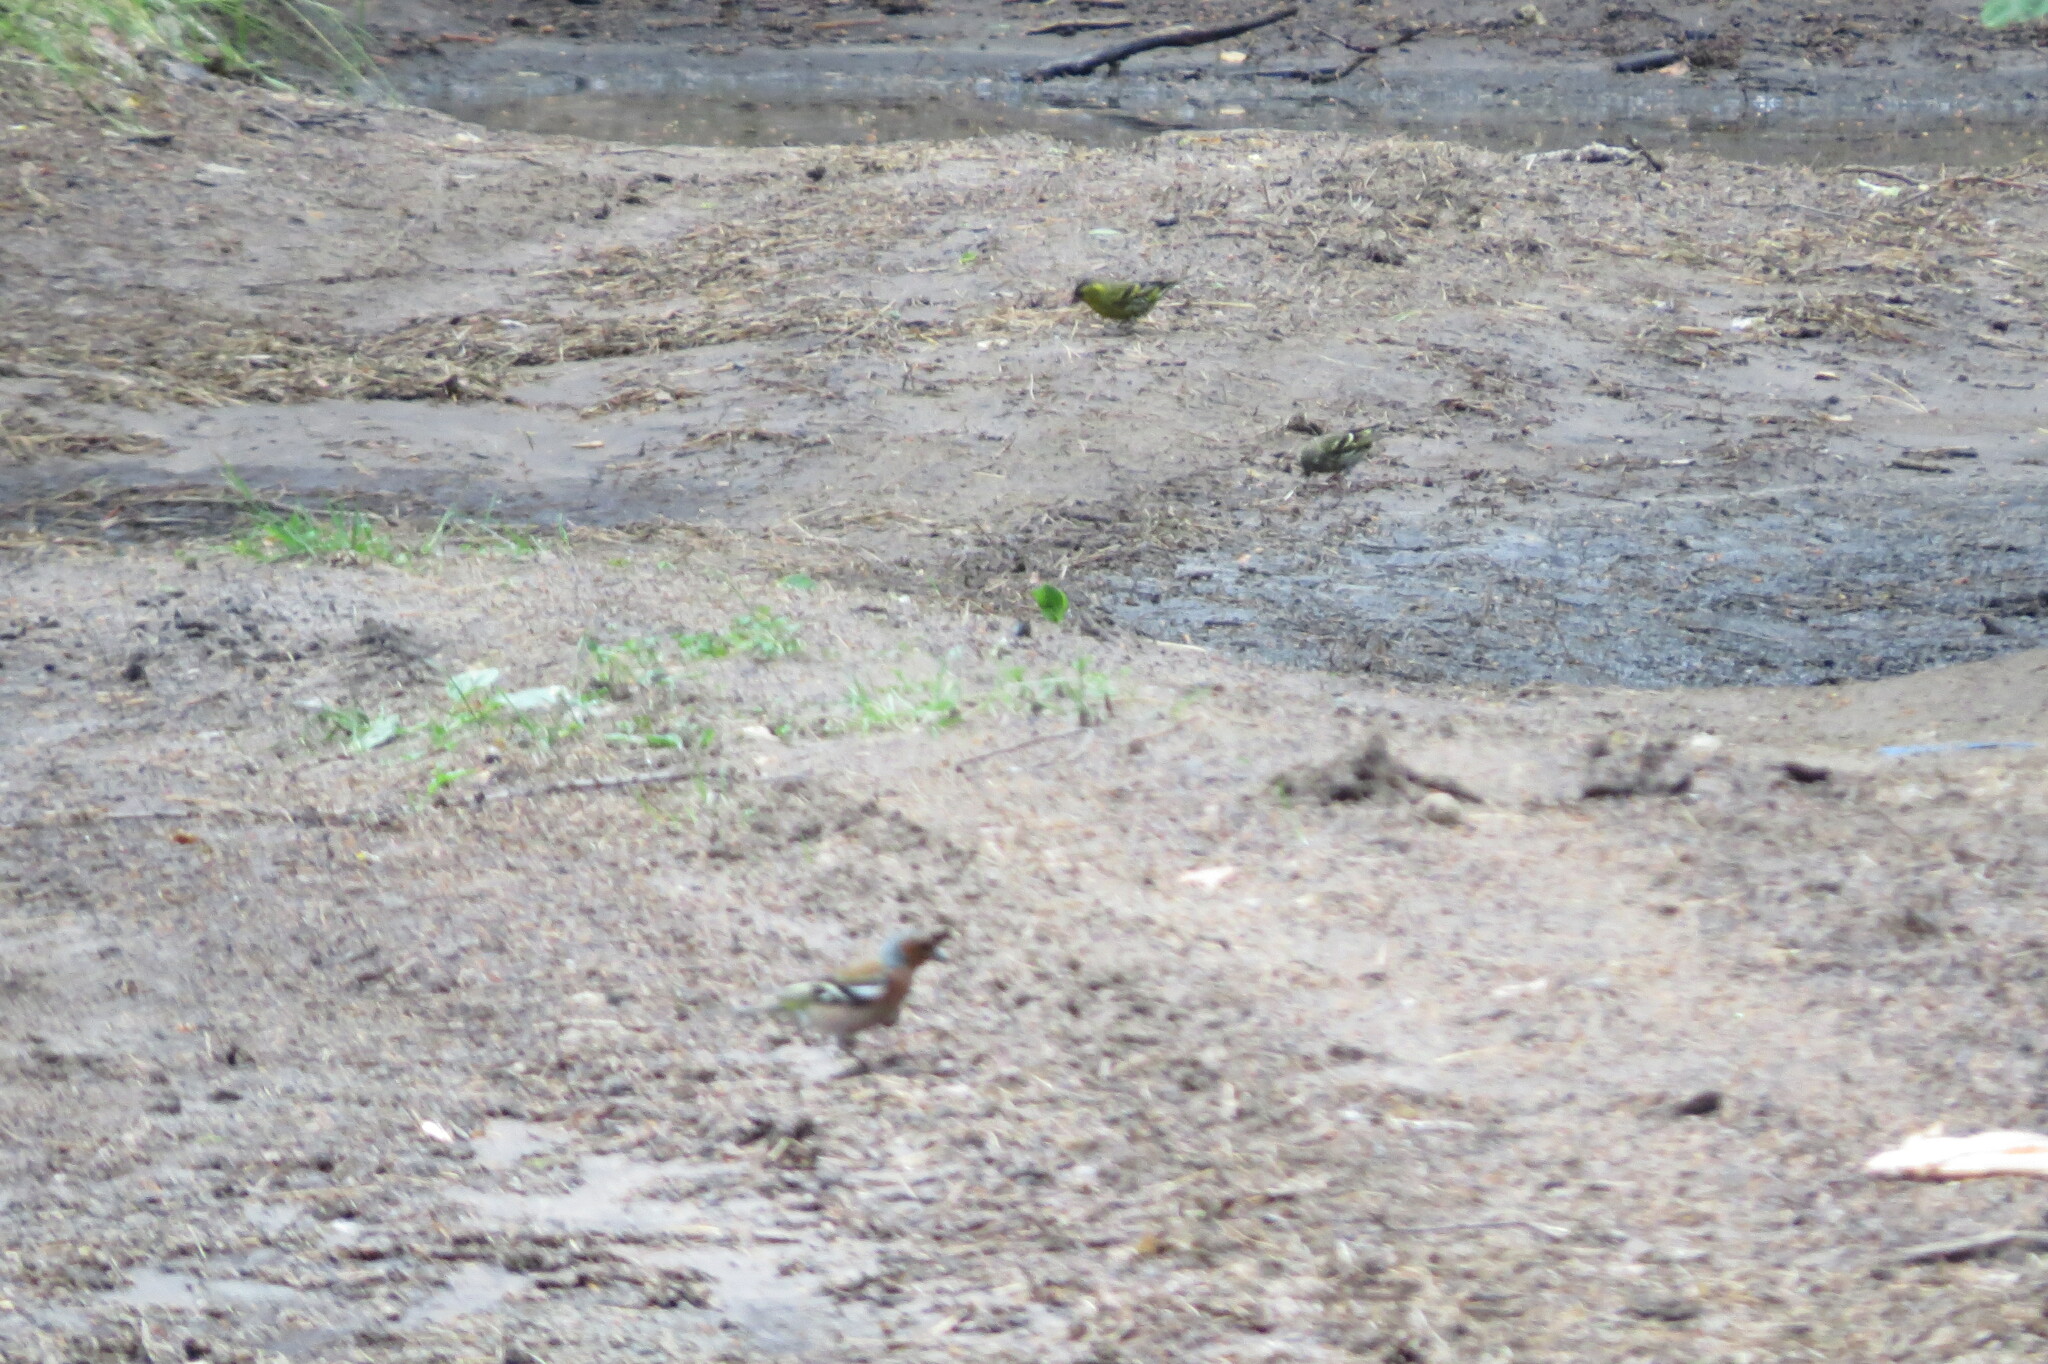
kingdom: Animalia
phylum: Chordata
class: Aves
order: Passeriformes
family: Fringillidae
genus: Fringilla
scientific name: Fringilla coelebs
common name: Common chaffinch
